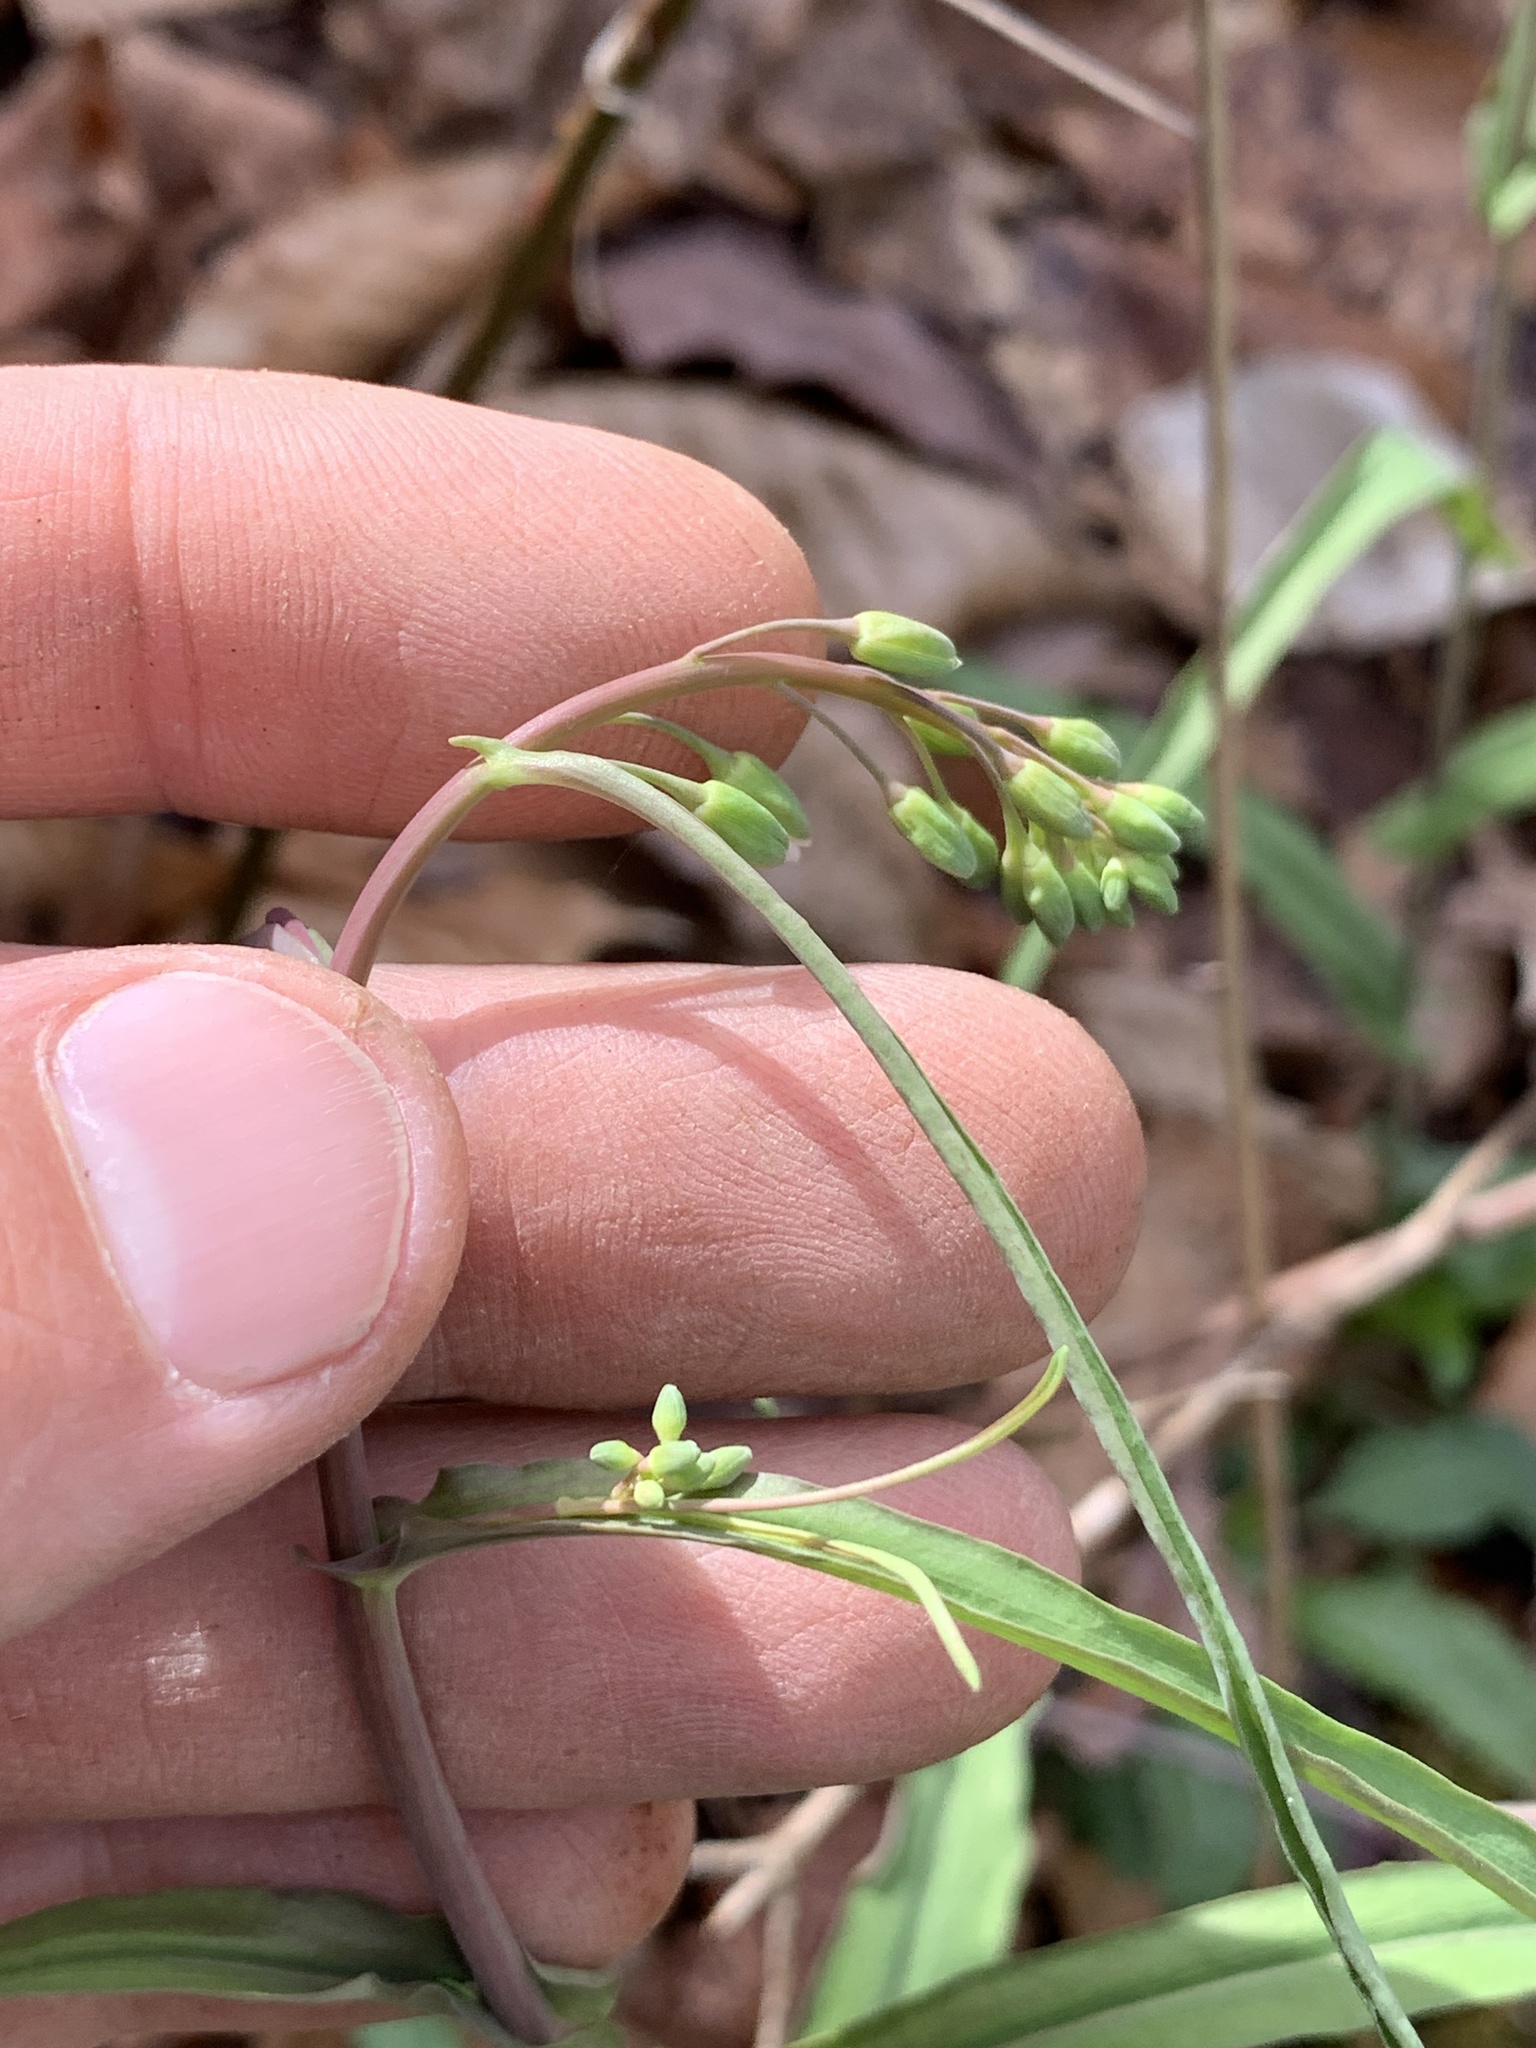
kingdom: Plantae
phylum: Tracheophyta
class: Magnoliopsida
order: Brassicales
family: Brassicaceae
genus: Borodinia
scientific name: Borodinia laevigata
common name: Smooth rockcress
